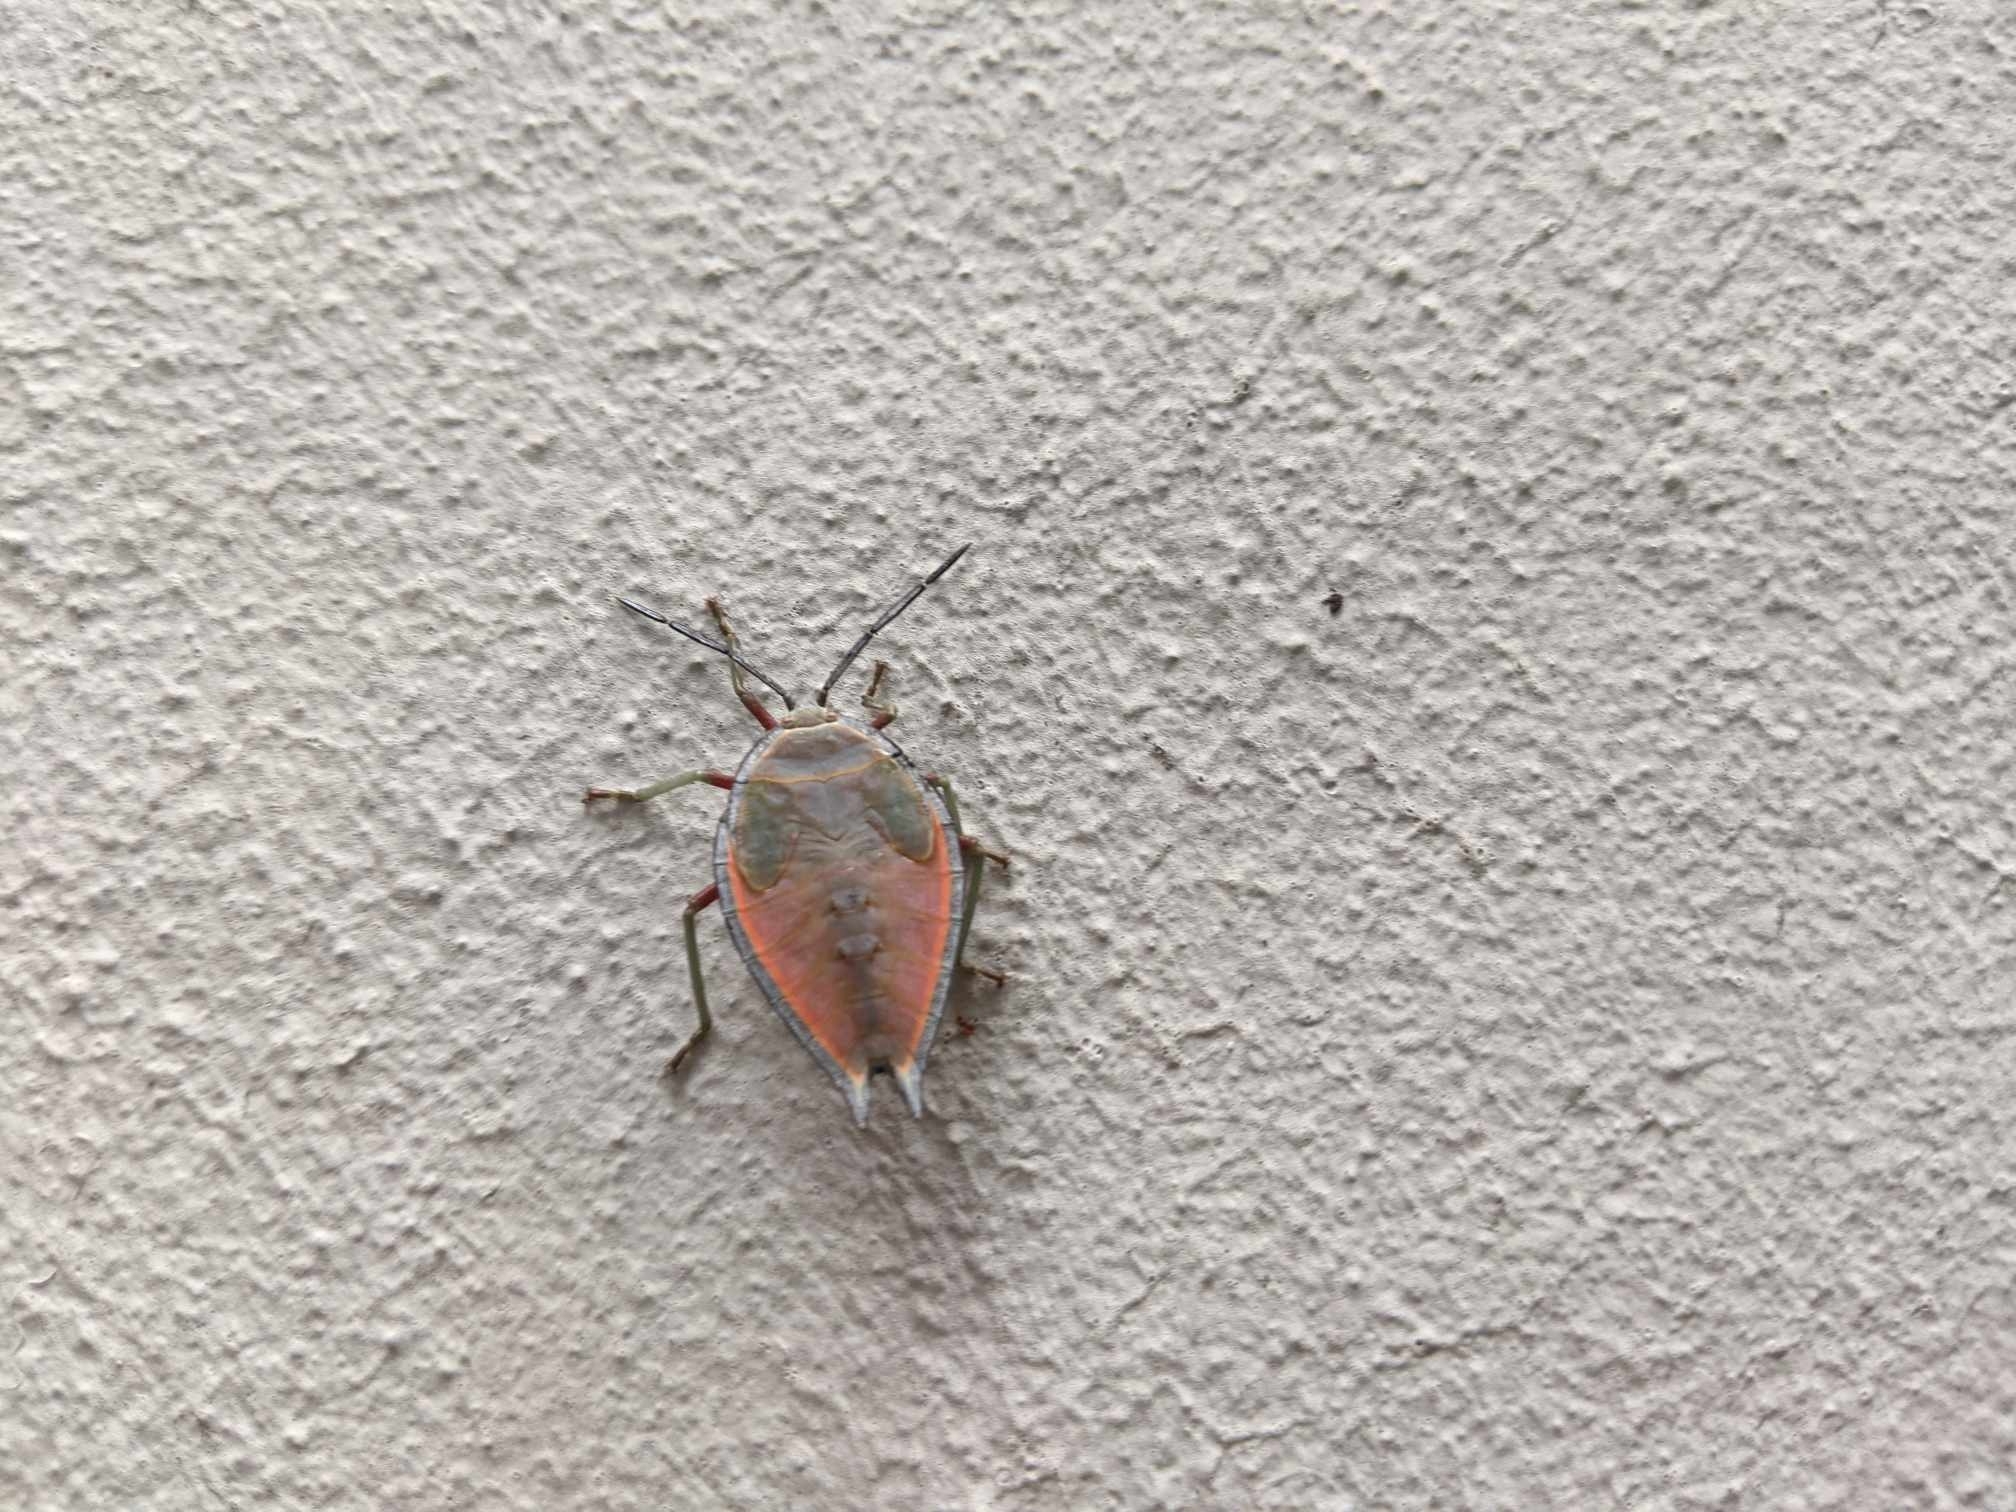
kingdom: Animalia
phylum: Arthropoda
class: Insecta
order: Hemiptera
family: Tessaratomidae
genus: Lyramorpha
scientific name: Lyramorpha rosea
